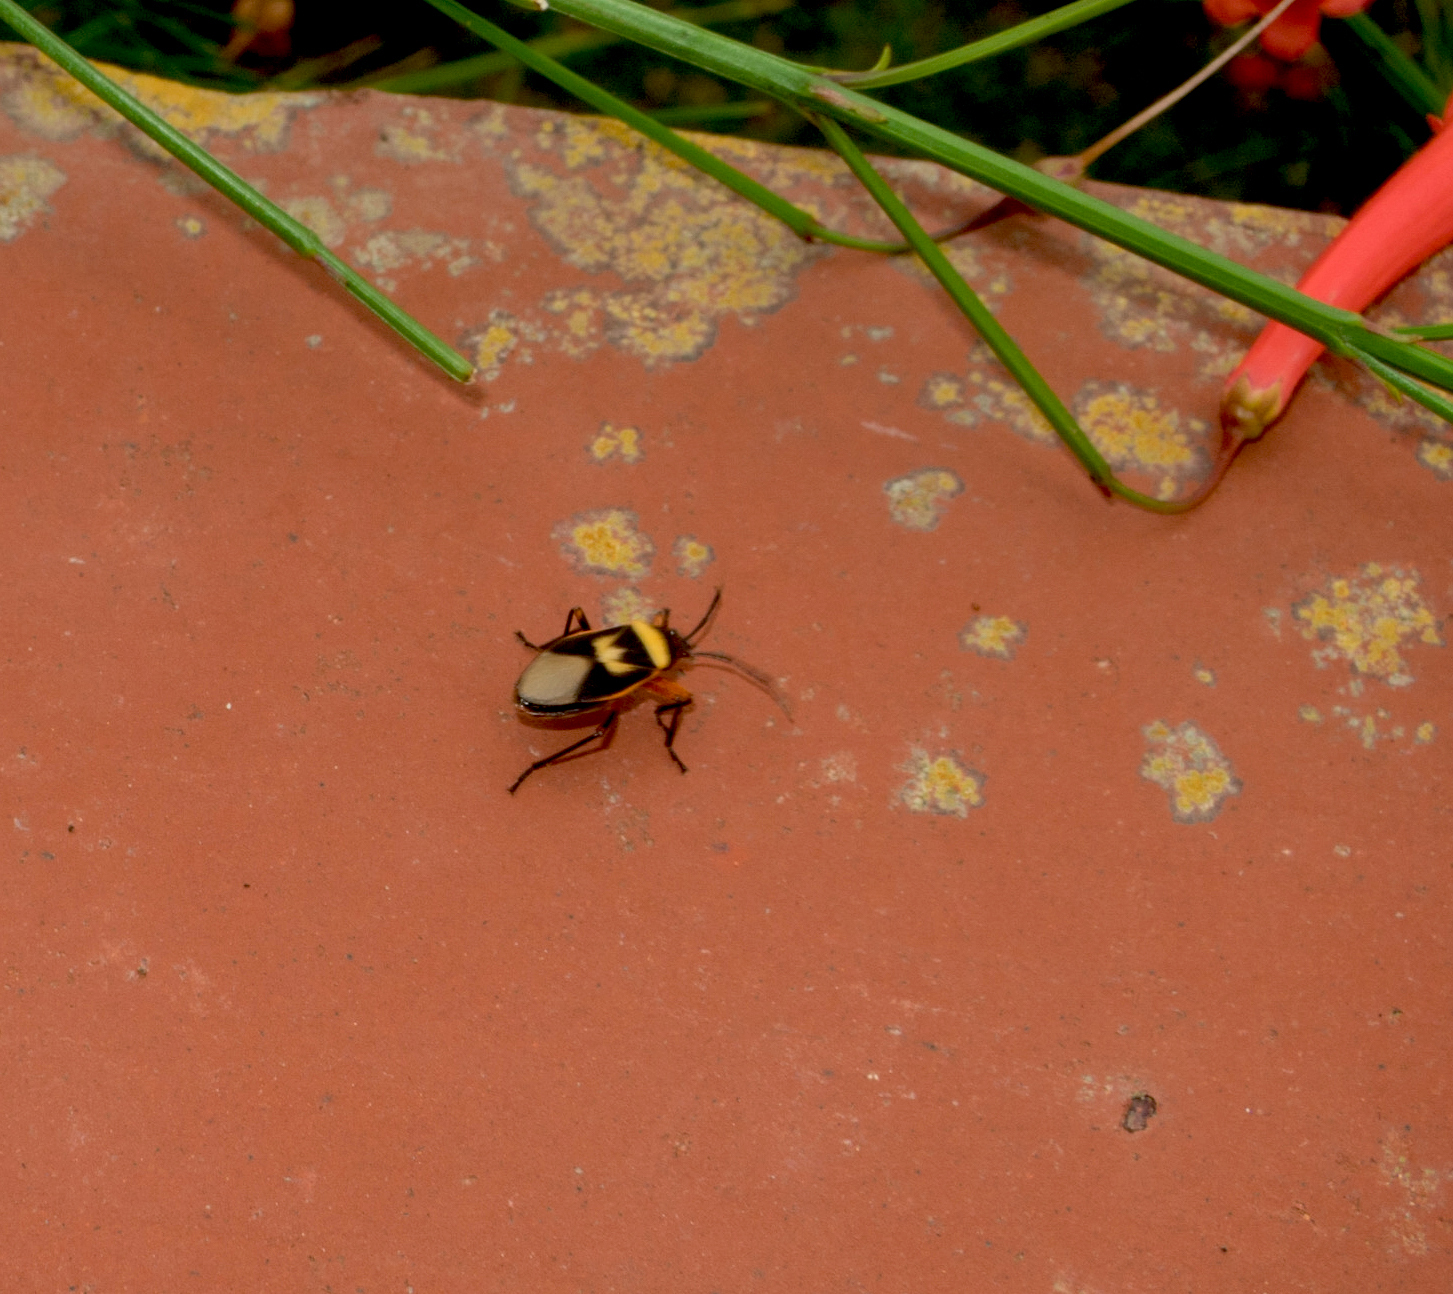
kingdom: Animalia
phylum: Arthropoda
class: Insecta
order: Hemiptera
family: Largidae
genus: Largus
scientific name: Largus sellatus
